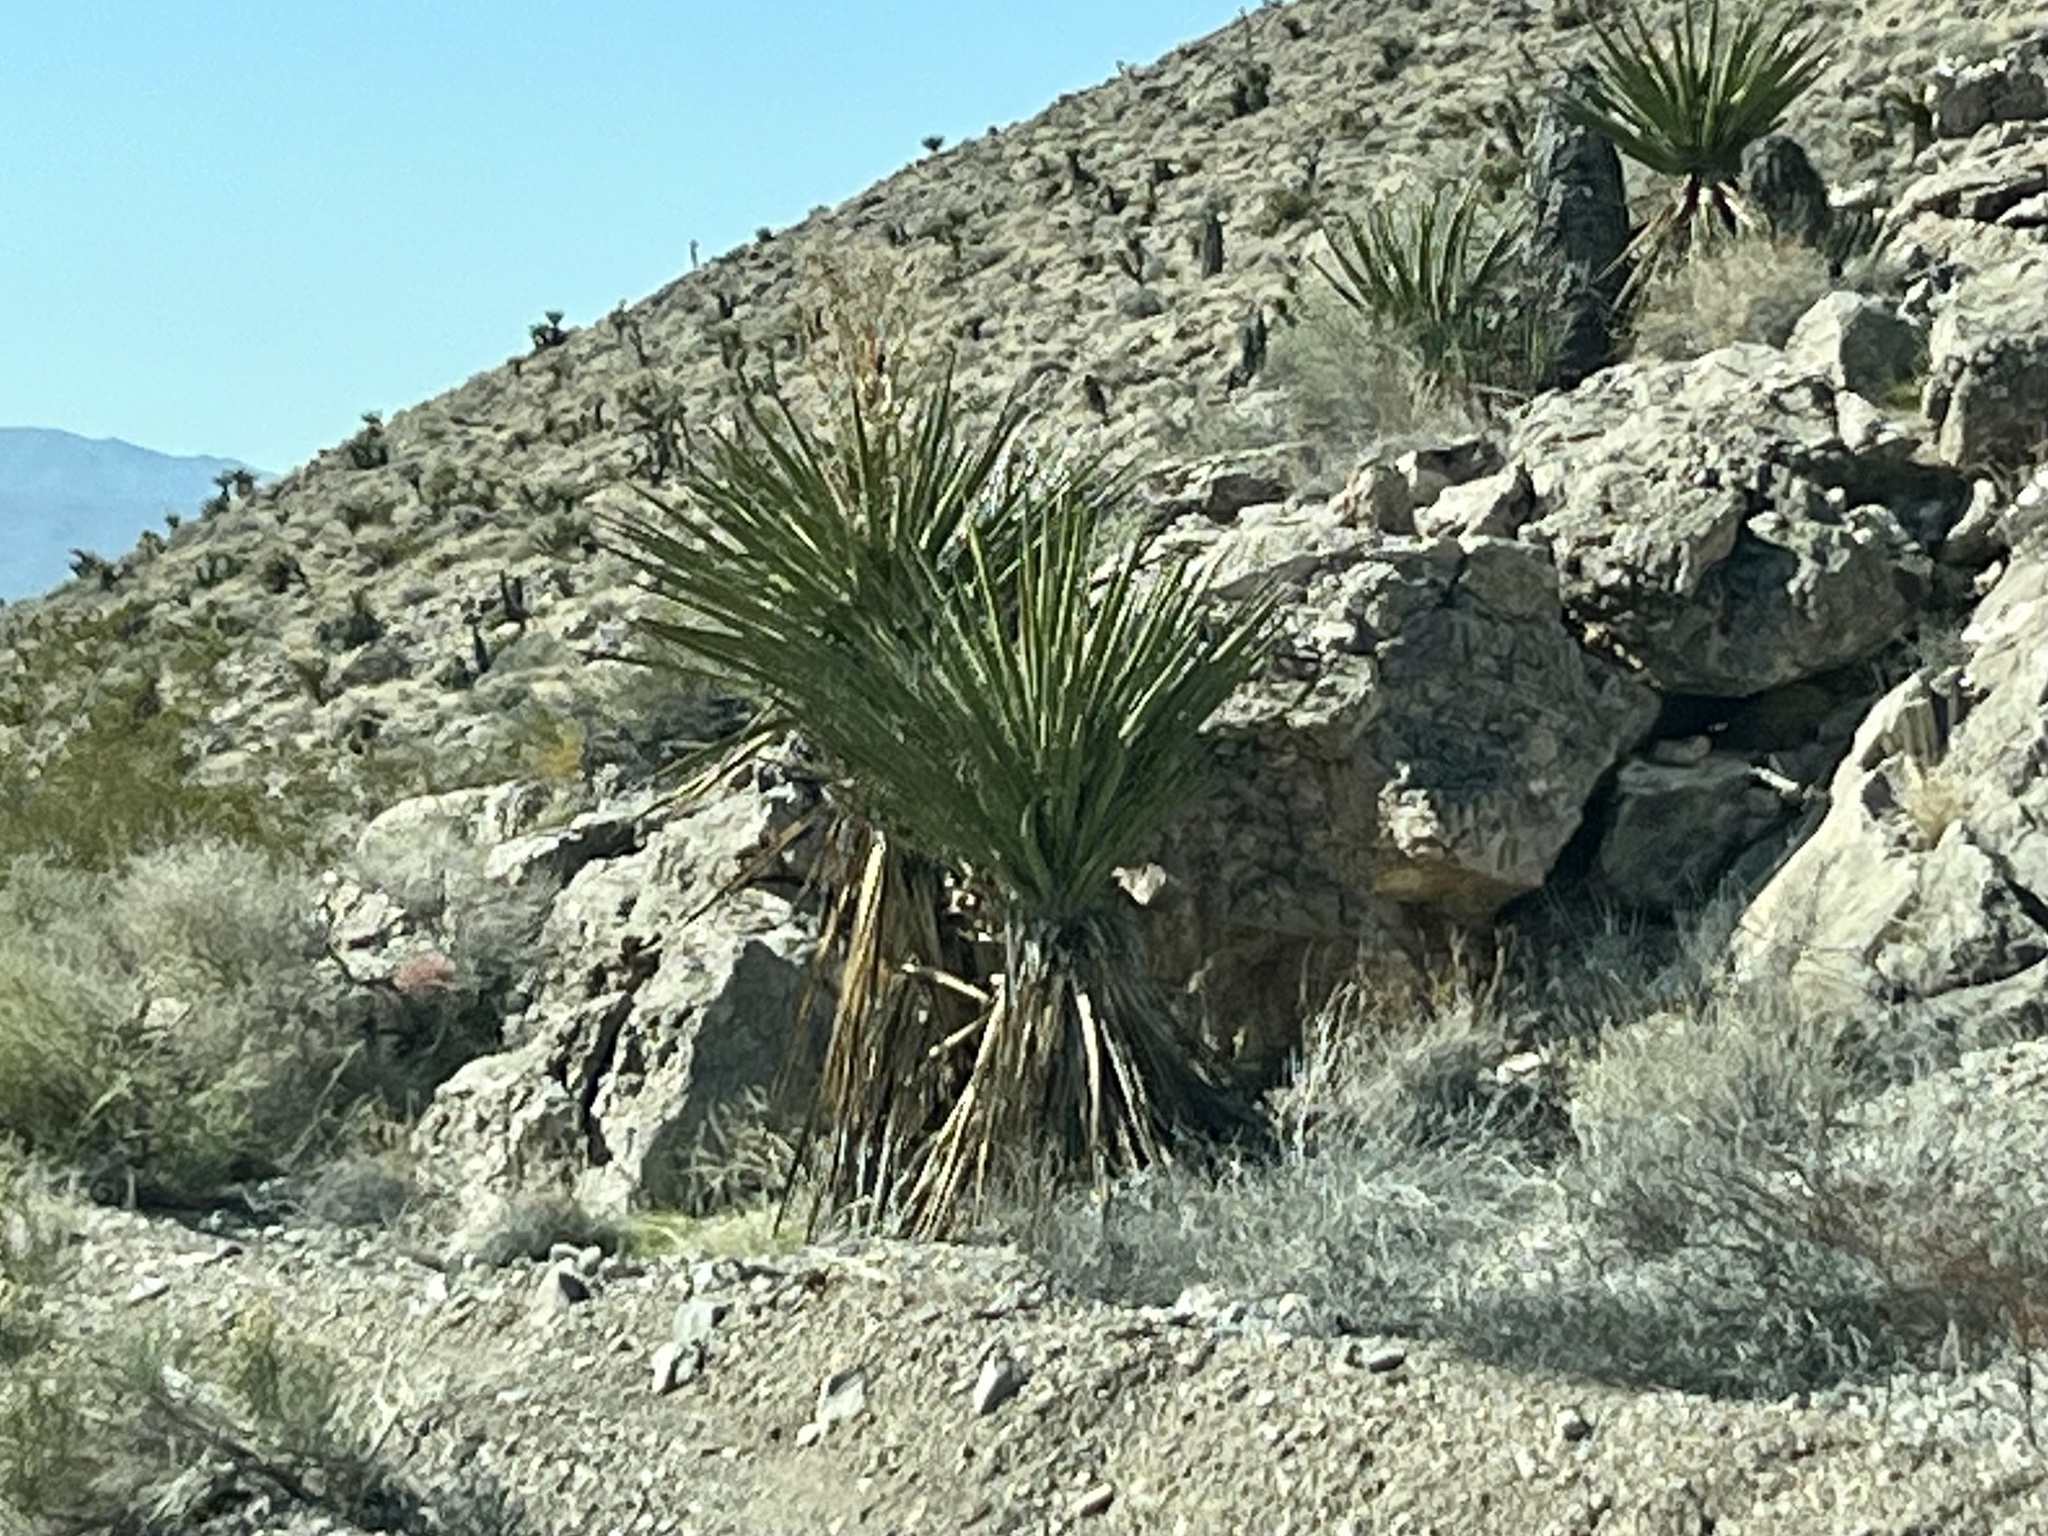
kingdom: Plantae
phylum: Tracheophyta
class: Liliopsida
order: Asparagales
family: Asparagaceae
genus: Yucca
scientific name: Yucca schidigera
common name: Mojave yucca
